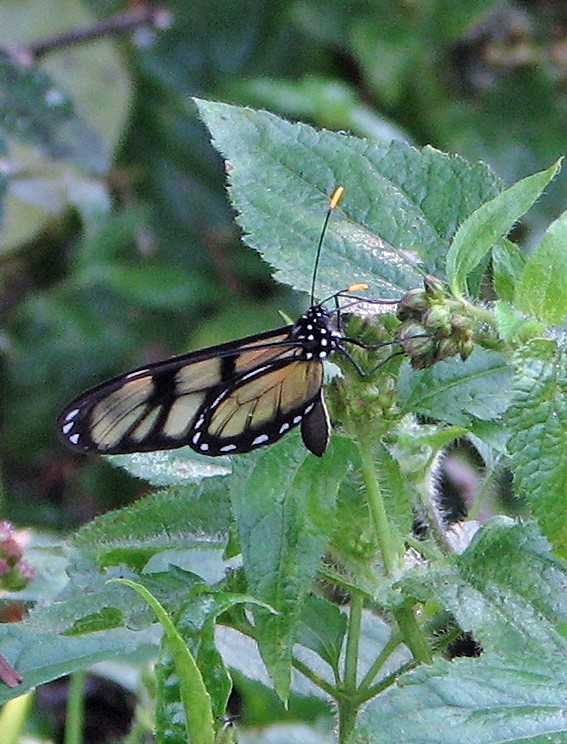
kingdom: Animalia
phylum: Arthropoda
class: Insecta
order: Lepidoptera
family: Nymphalidae
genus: Dircenna
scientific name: Dircenna dero
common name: Dero clearwing
